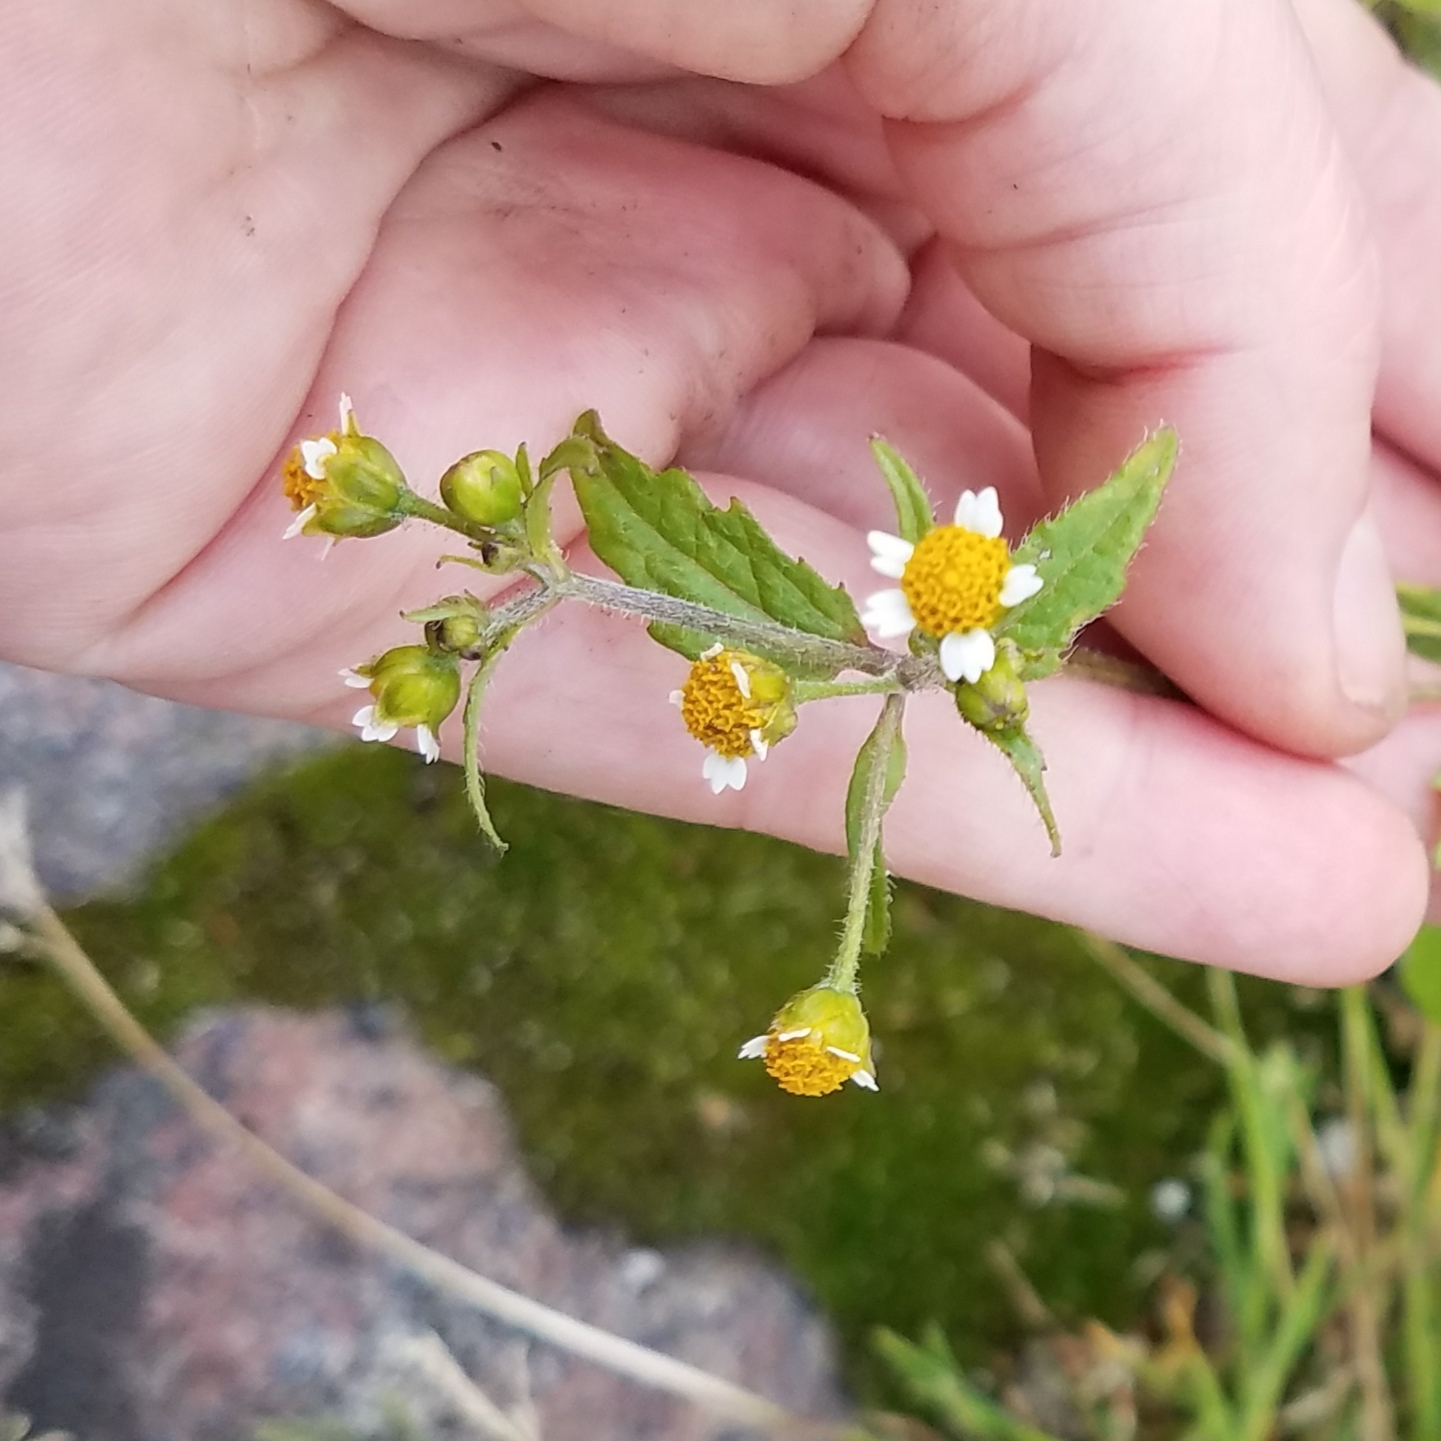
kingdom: Plantae
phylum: Tracheophyta
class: Magnoliopsida
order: Asterales
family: Asteraceae
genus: Galinsoga
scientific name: Galinsoga quadriradiata
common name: Shaggy soldier
